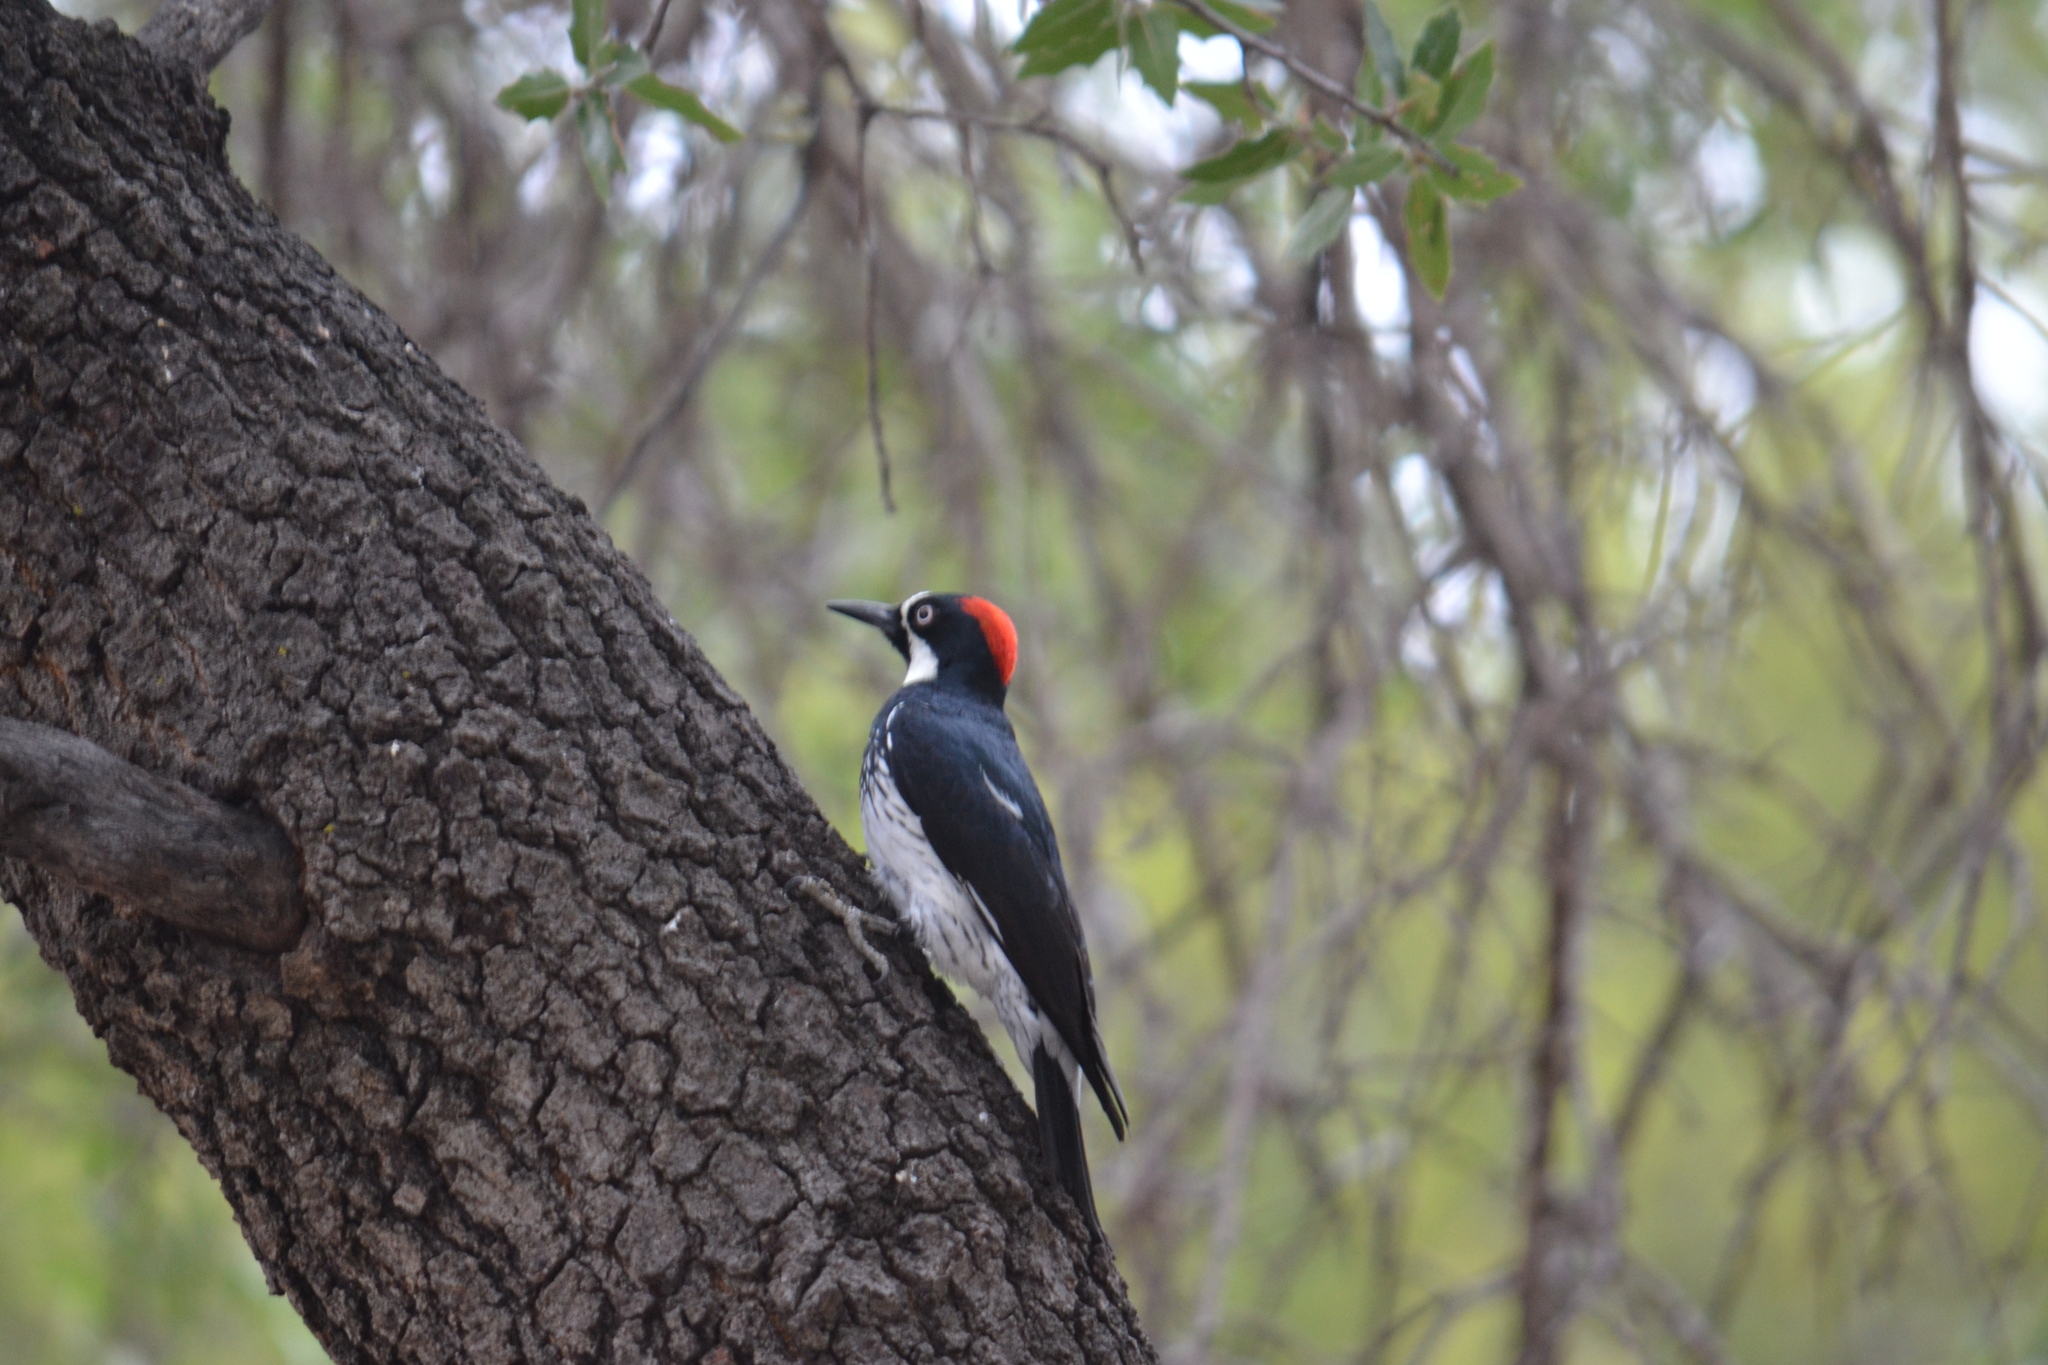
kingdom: Animalia
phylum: Chordata
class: Aves
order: Piciformes
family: Picidae
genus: Melanerpes
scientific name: Melanerpes formicivorus
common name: Acorn woodpecker
